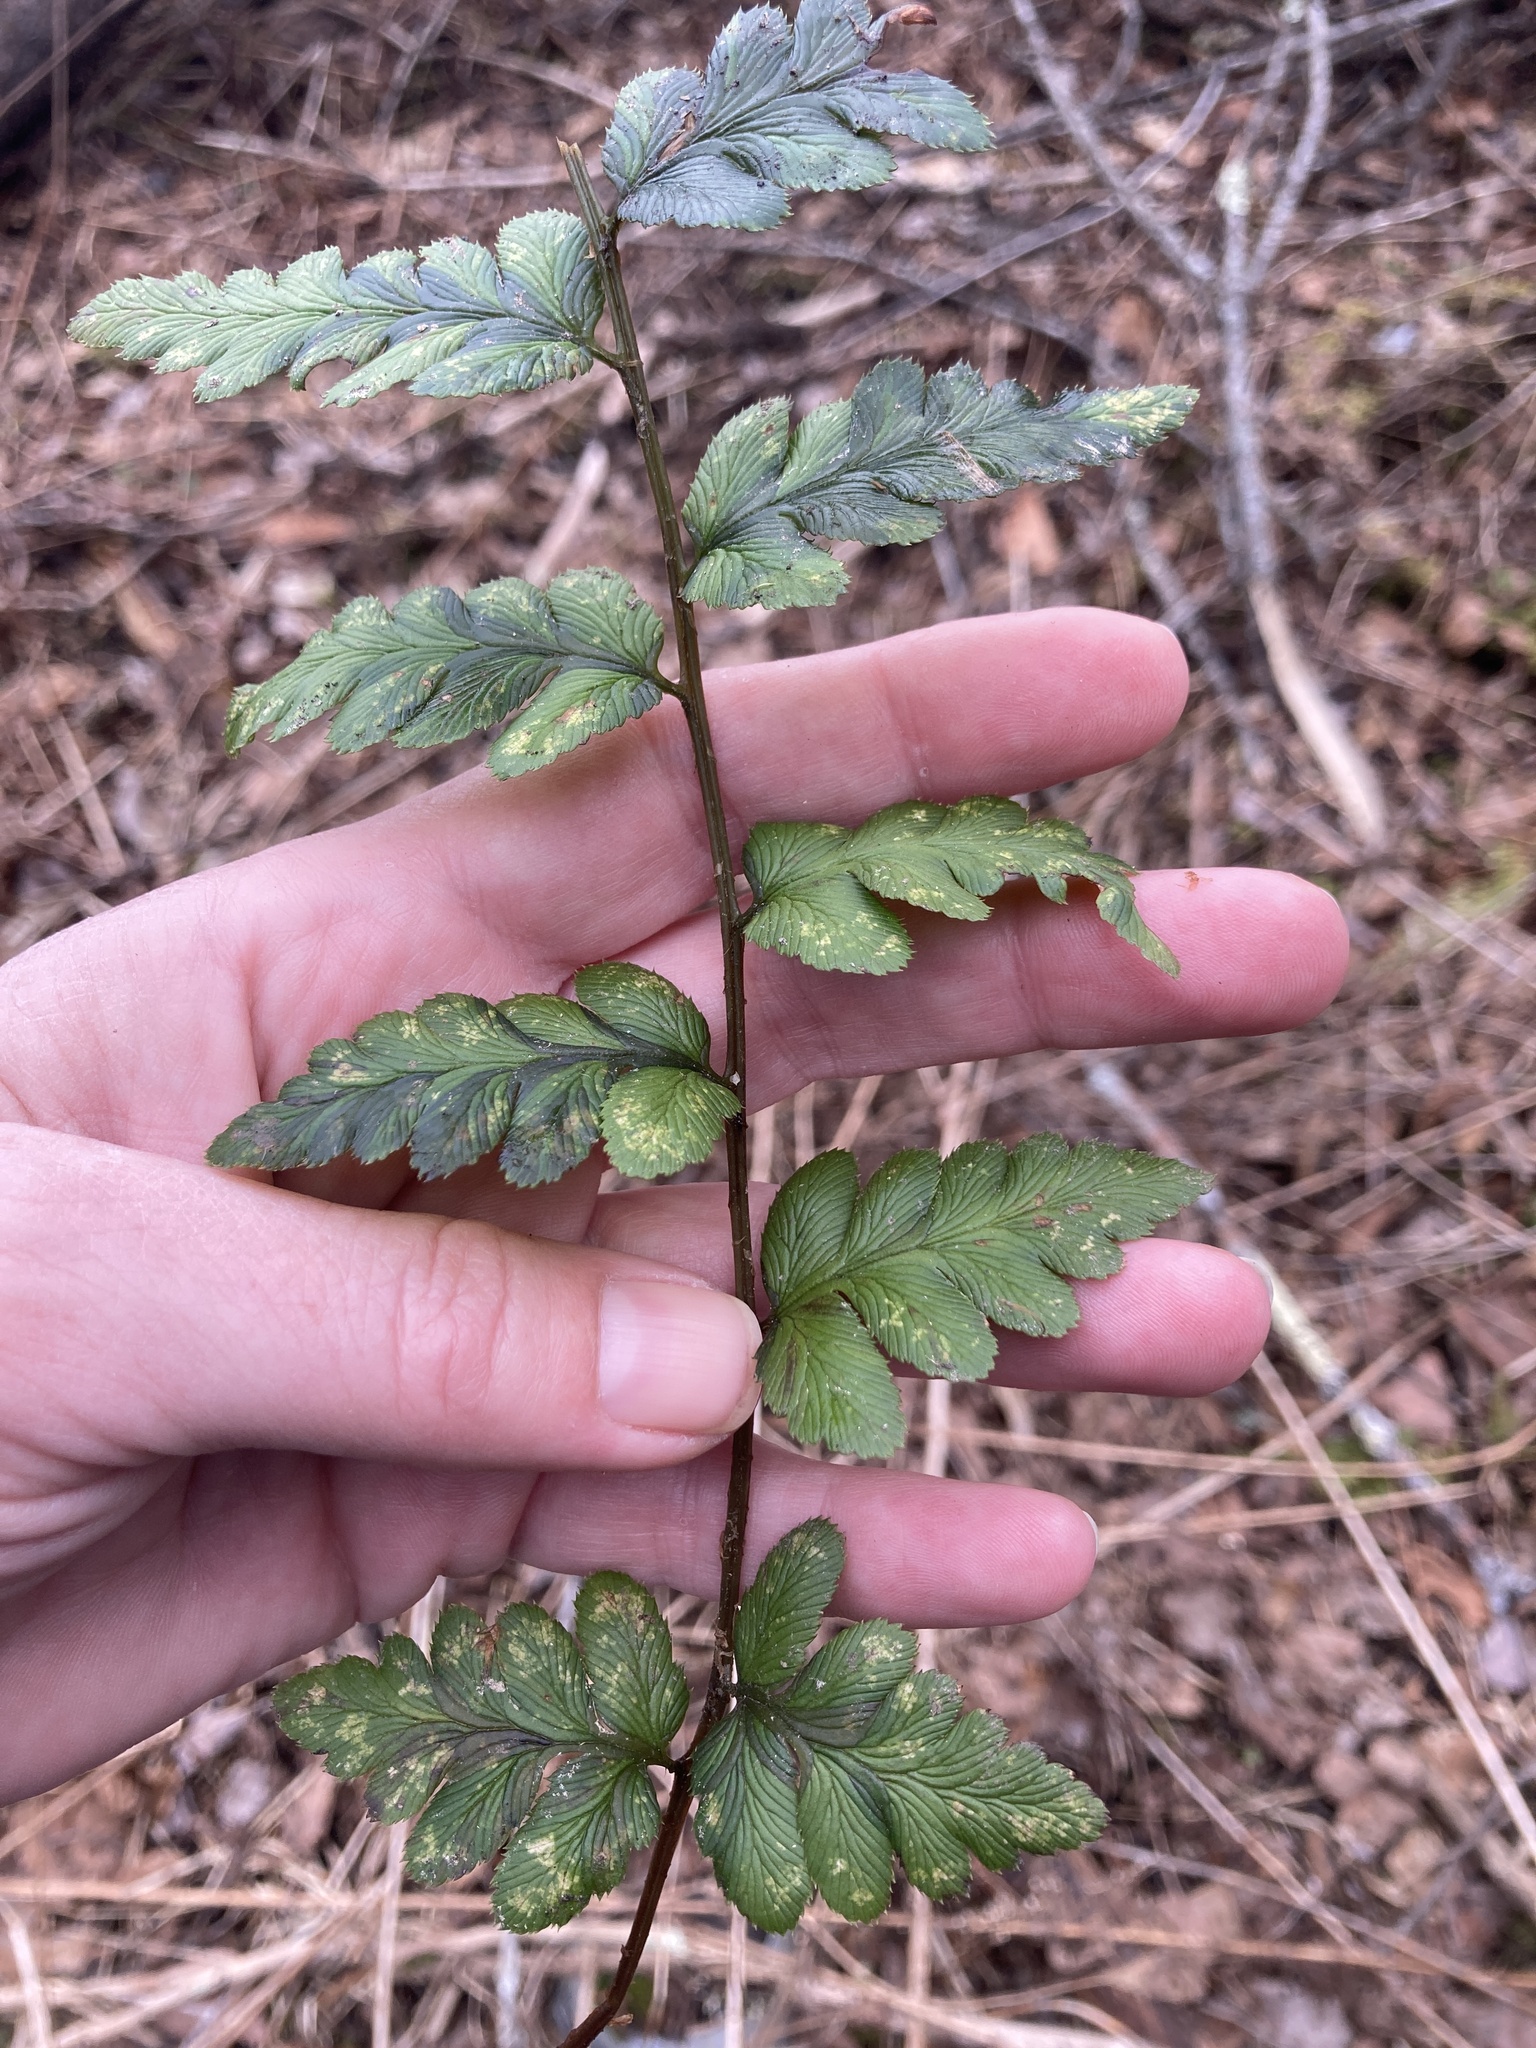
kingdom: Plantae
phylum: Tracheophyta
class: Polypodiopsida
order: Polypodiales
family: Dryopteridaceae
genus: Dryopteris
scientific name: Dryopteris cristata
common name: Crested wood fern
